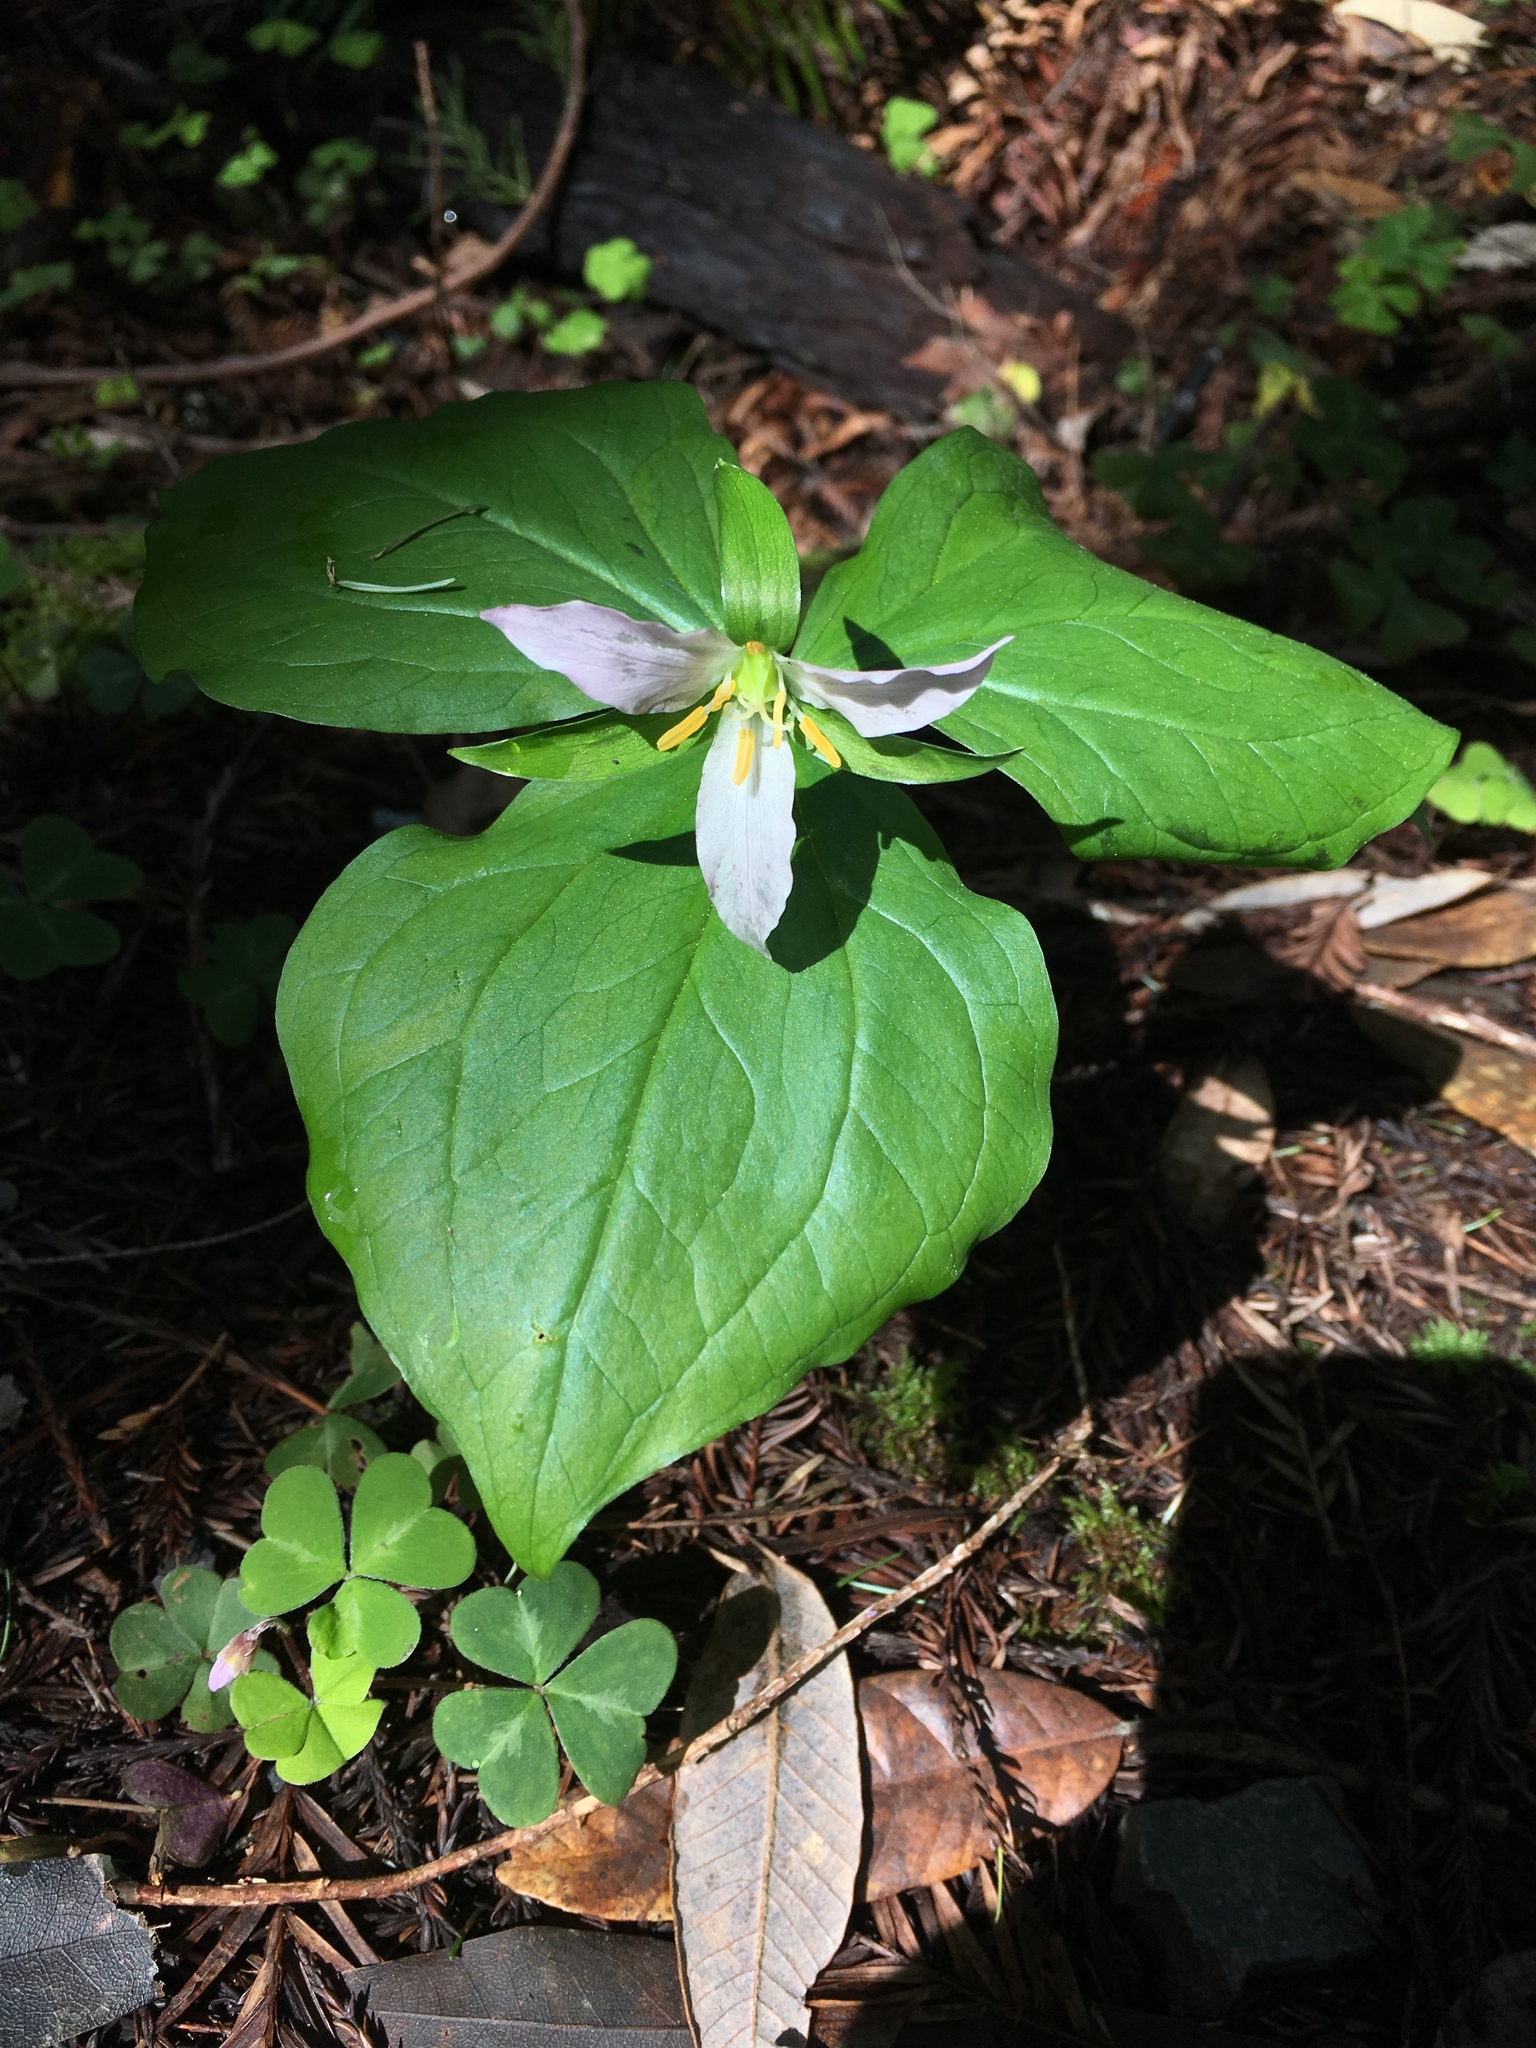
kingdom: Plantae
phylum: Tracheophyta
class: Liliopsida
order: Liliales
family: Melanthiaceae
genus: Trillium
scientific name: Trillium ovatum
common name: Pacific trillium
